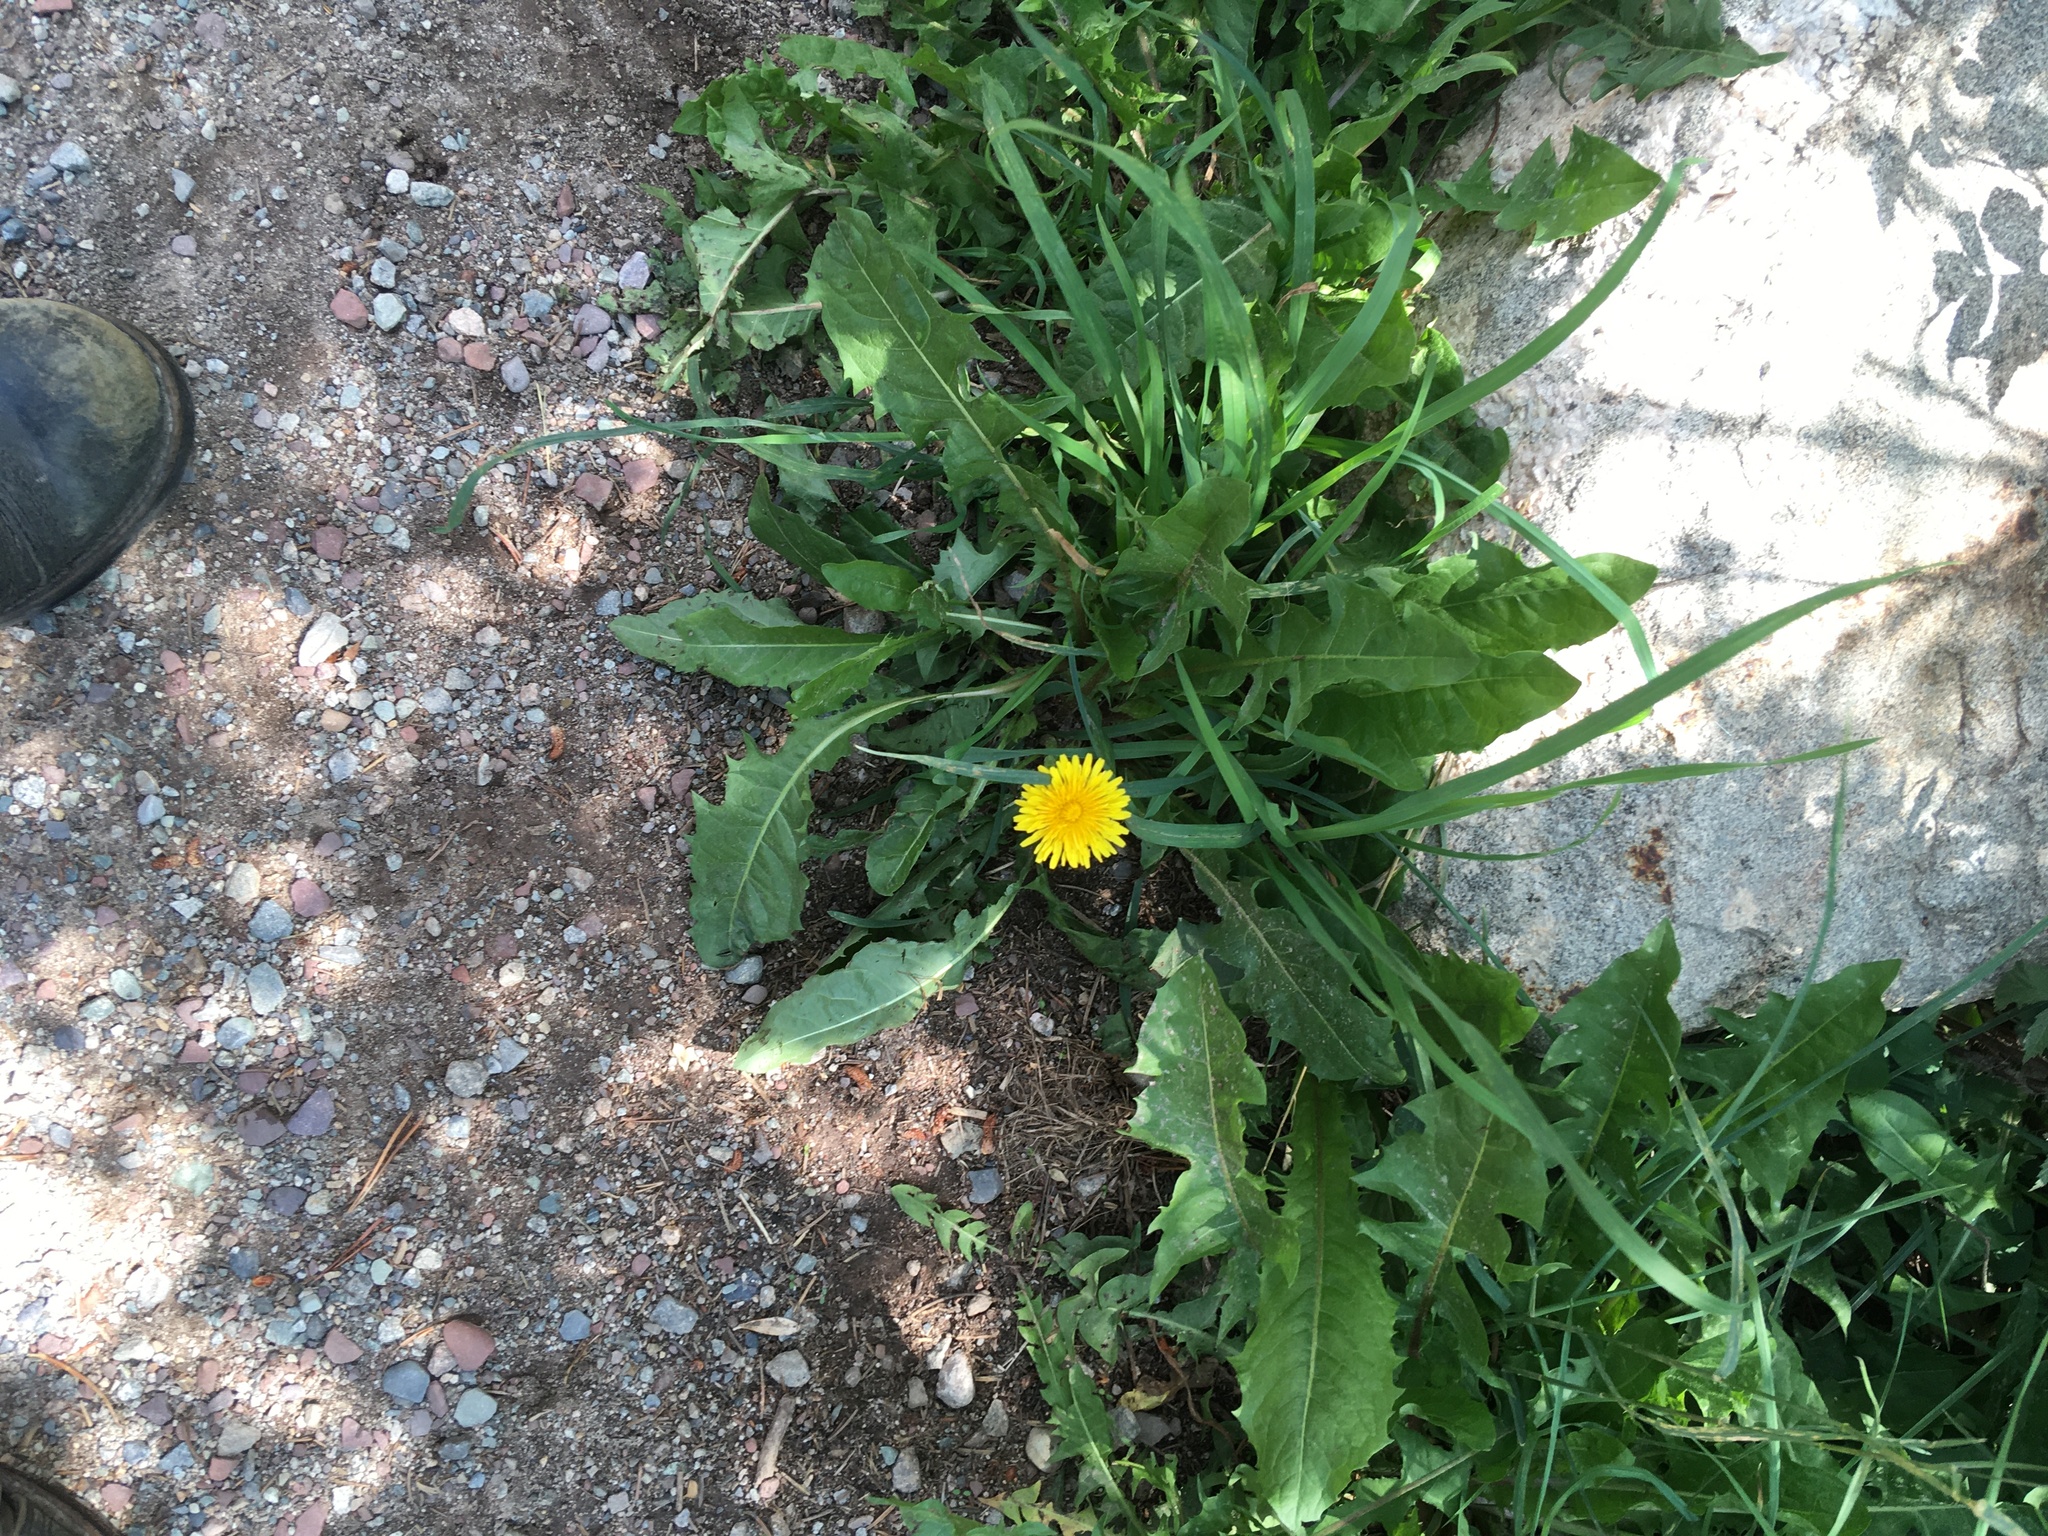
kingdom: Plantae
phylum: Tracheophyta
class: Magnoliopsida
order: Asterales
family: Asteraceae
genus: Taraxacum
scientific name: Taraxacum officinale
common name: Common dandelion
